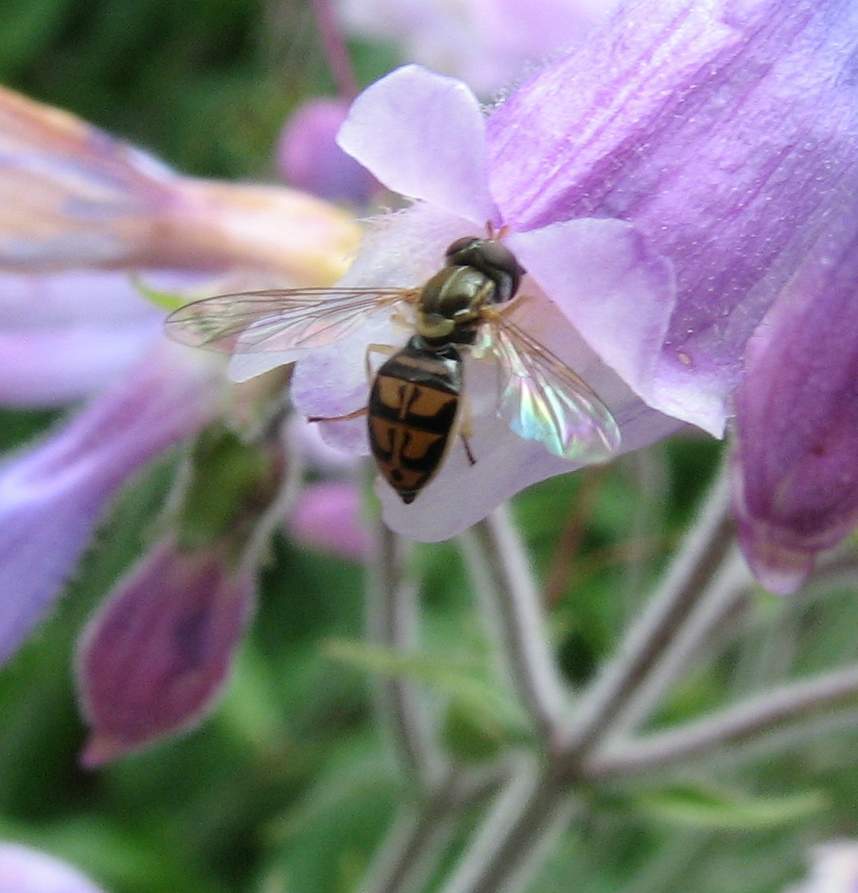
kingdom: Animalia
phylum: Arthropoda
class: Insecta
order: Diptera
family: Syrphidae
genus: Toxomerus
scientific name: Toxomerus marginatus
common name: Syrphid fly
